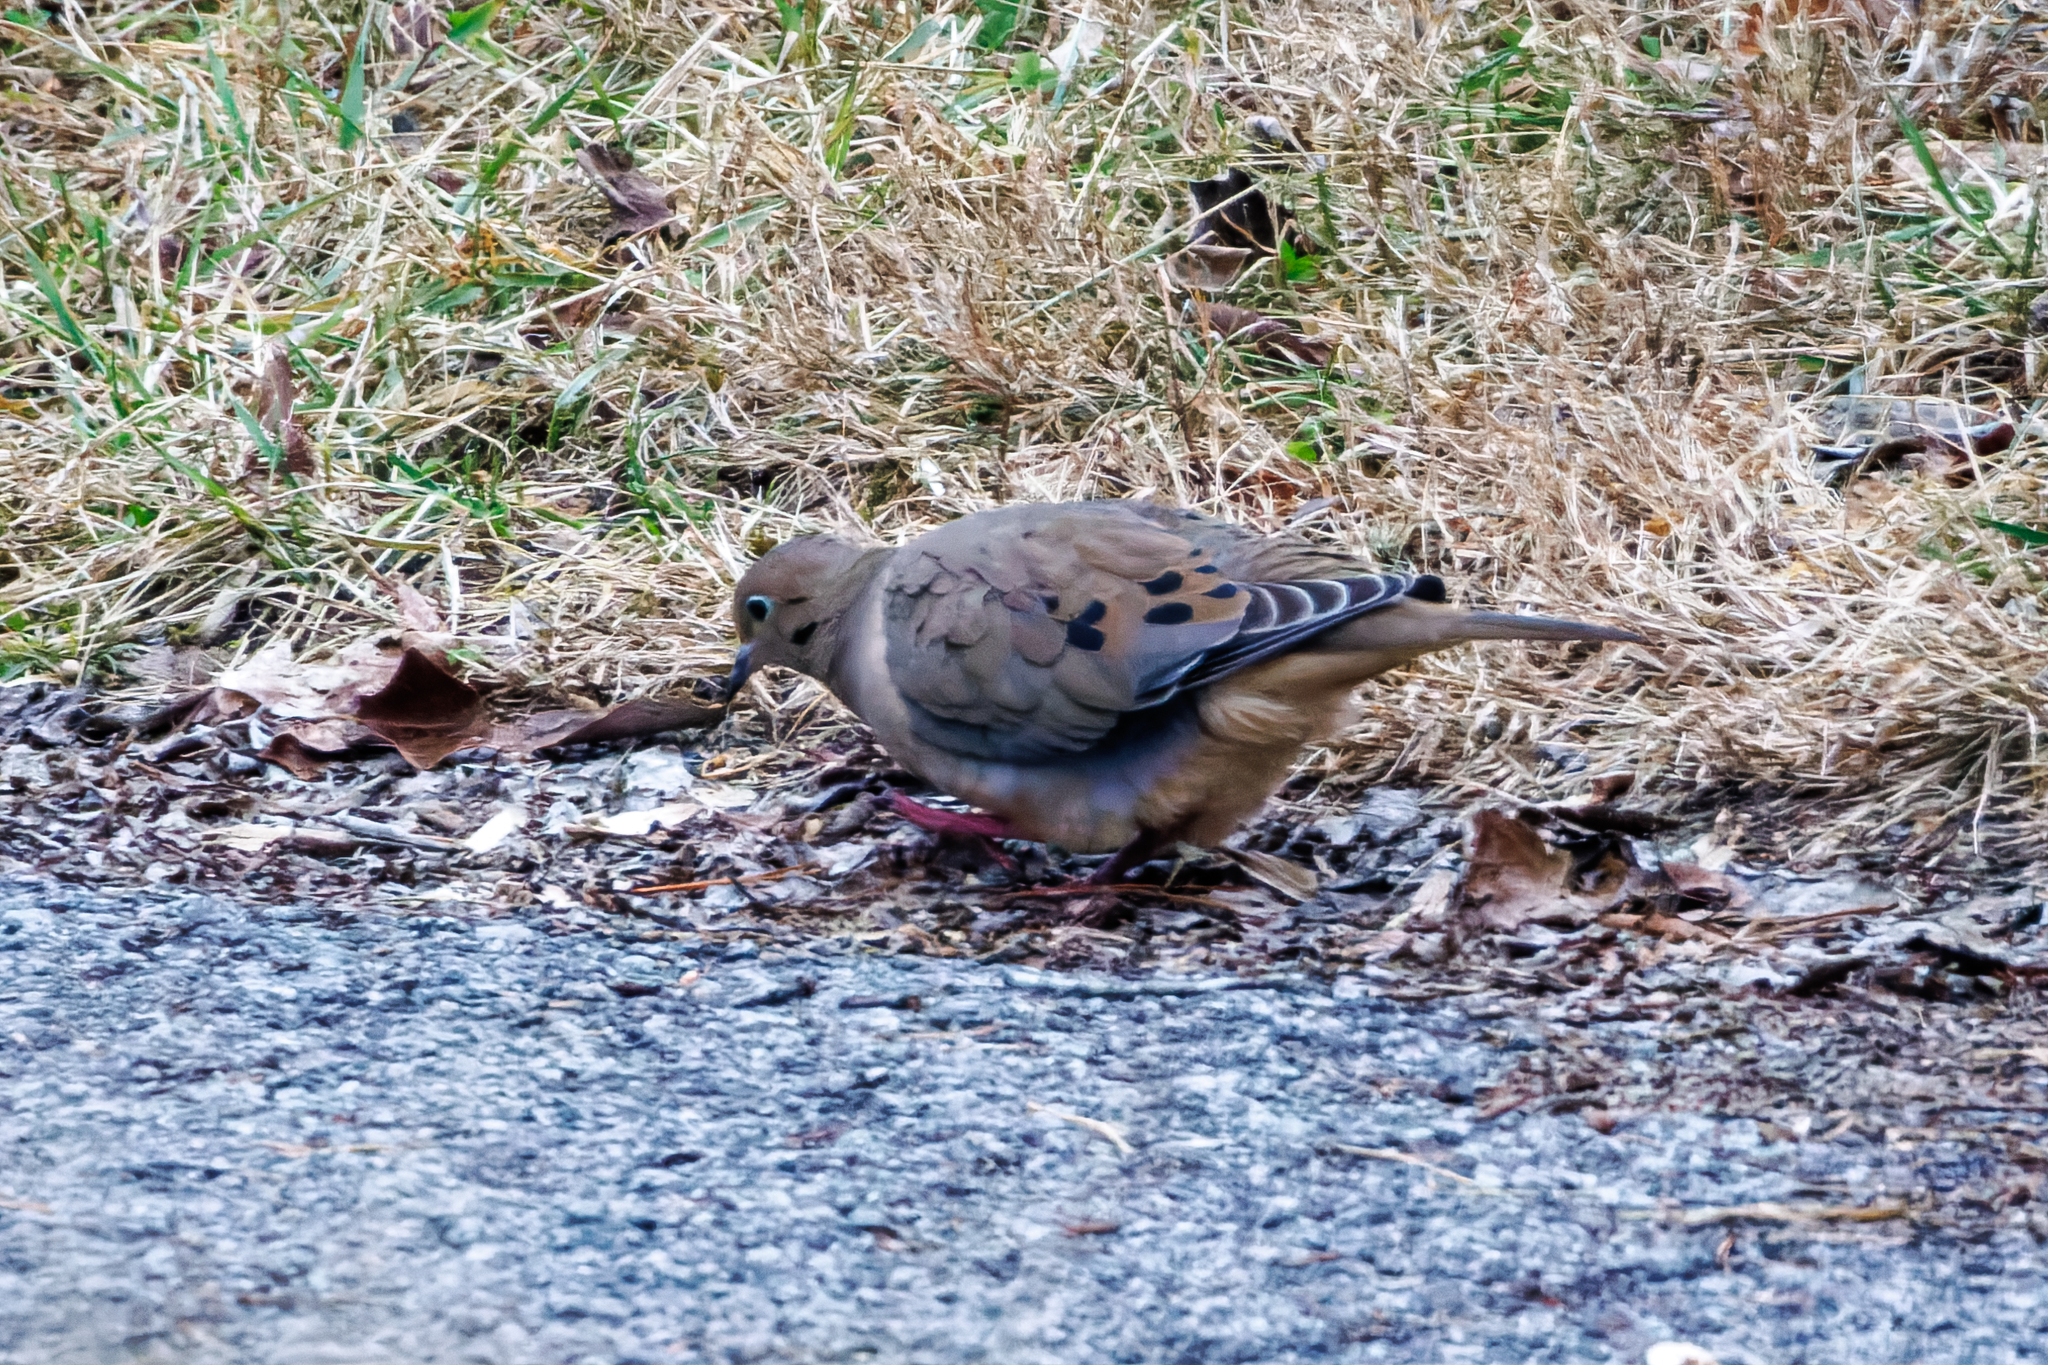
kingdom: Animalia
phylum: Chordata
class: Aves
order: Columbiformes
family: Columbidae
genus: Zenaida
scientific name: Zenaida macroura
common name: Mourning dove
